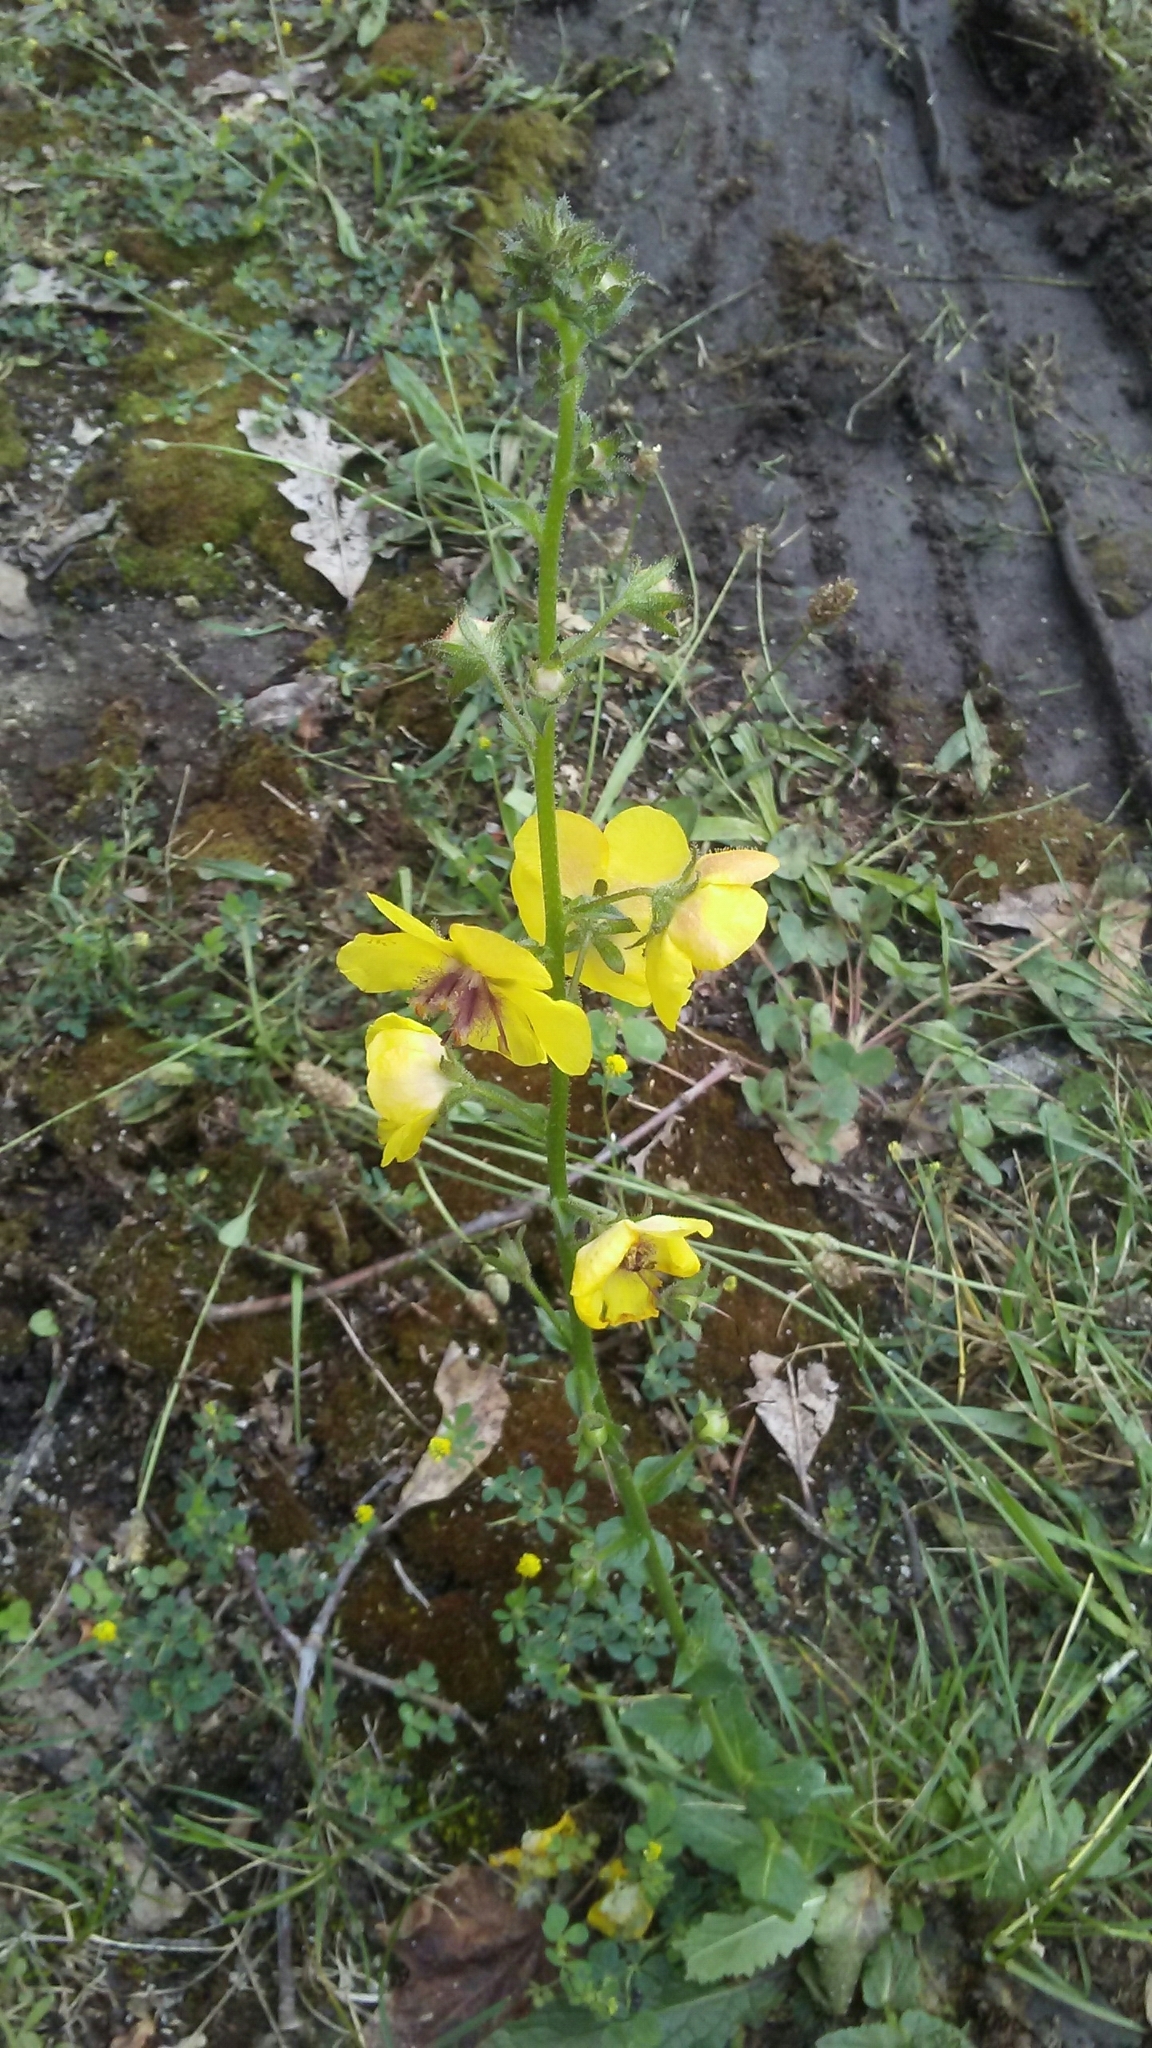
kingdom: Plantae
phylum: Tracheophyta
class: Magnoliopsida
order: Lamiales
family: Scrophulariaceae
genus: Verbascum
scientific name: Verbascum blattaria
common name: Moth mullein
